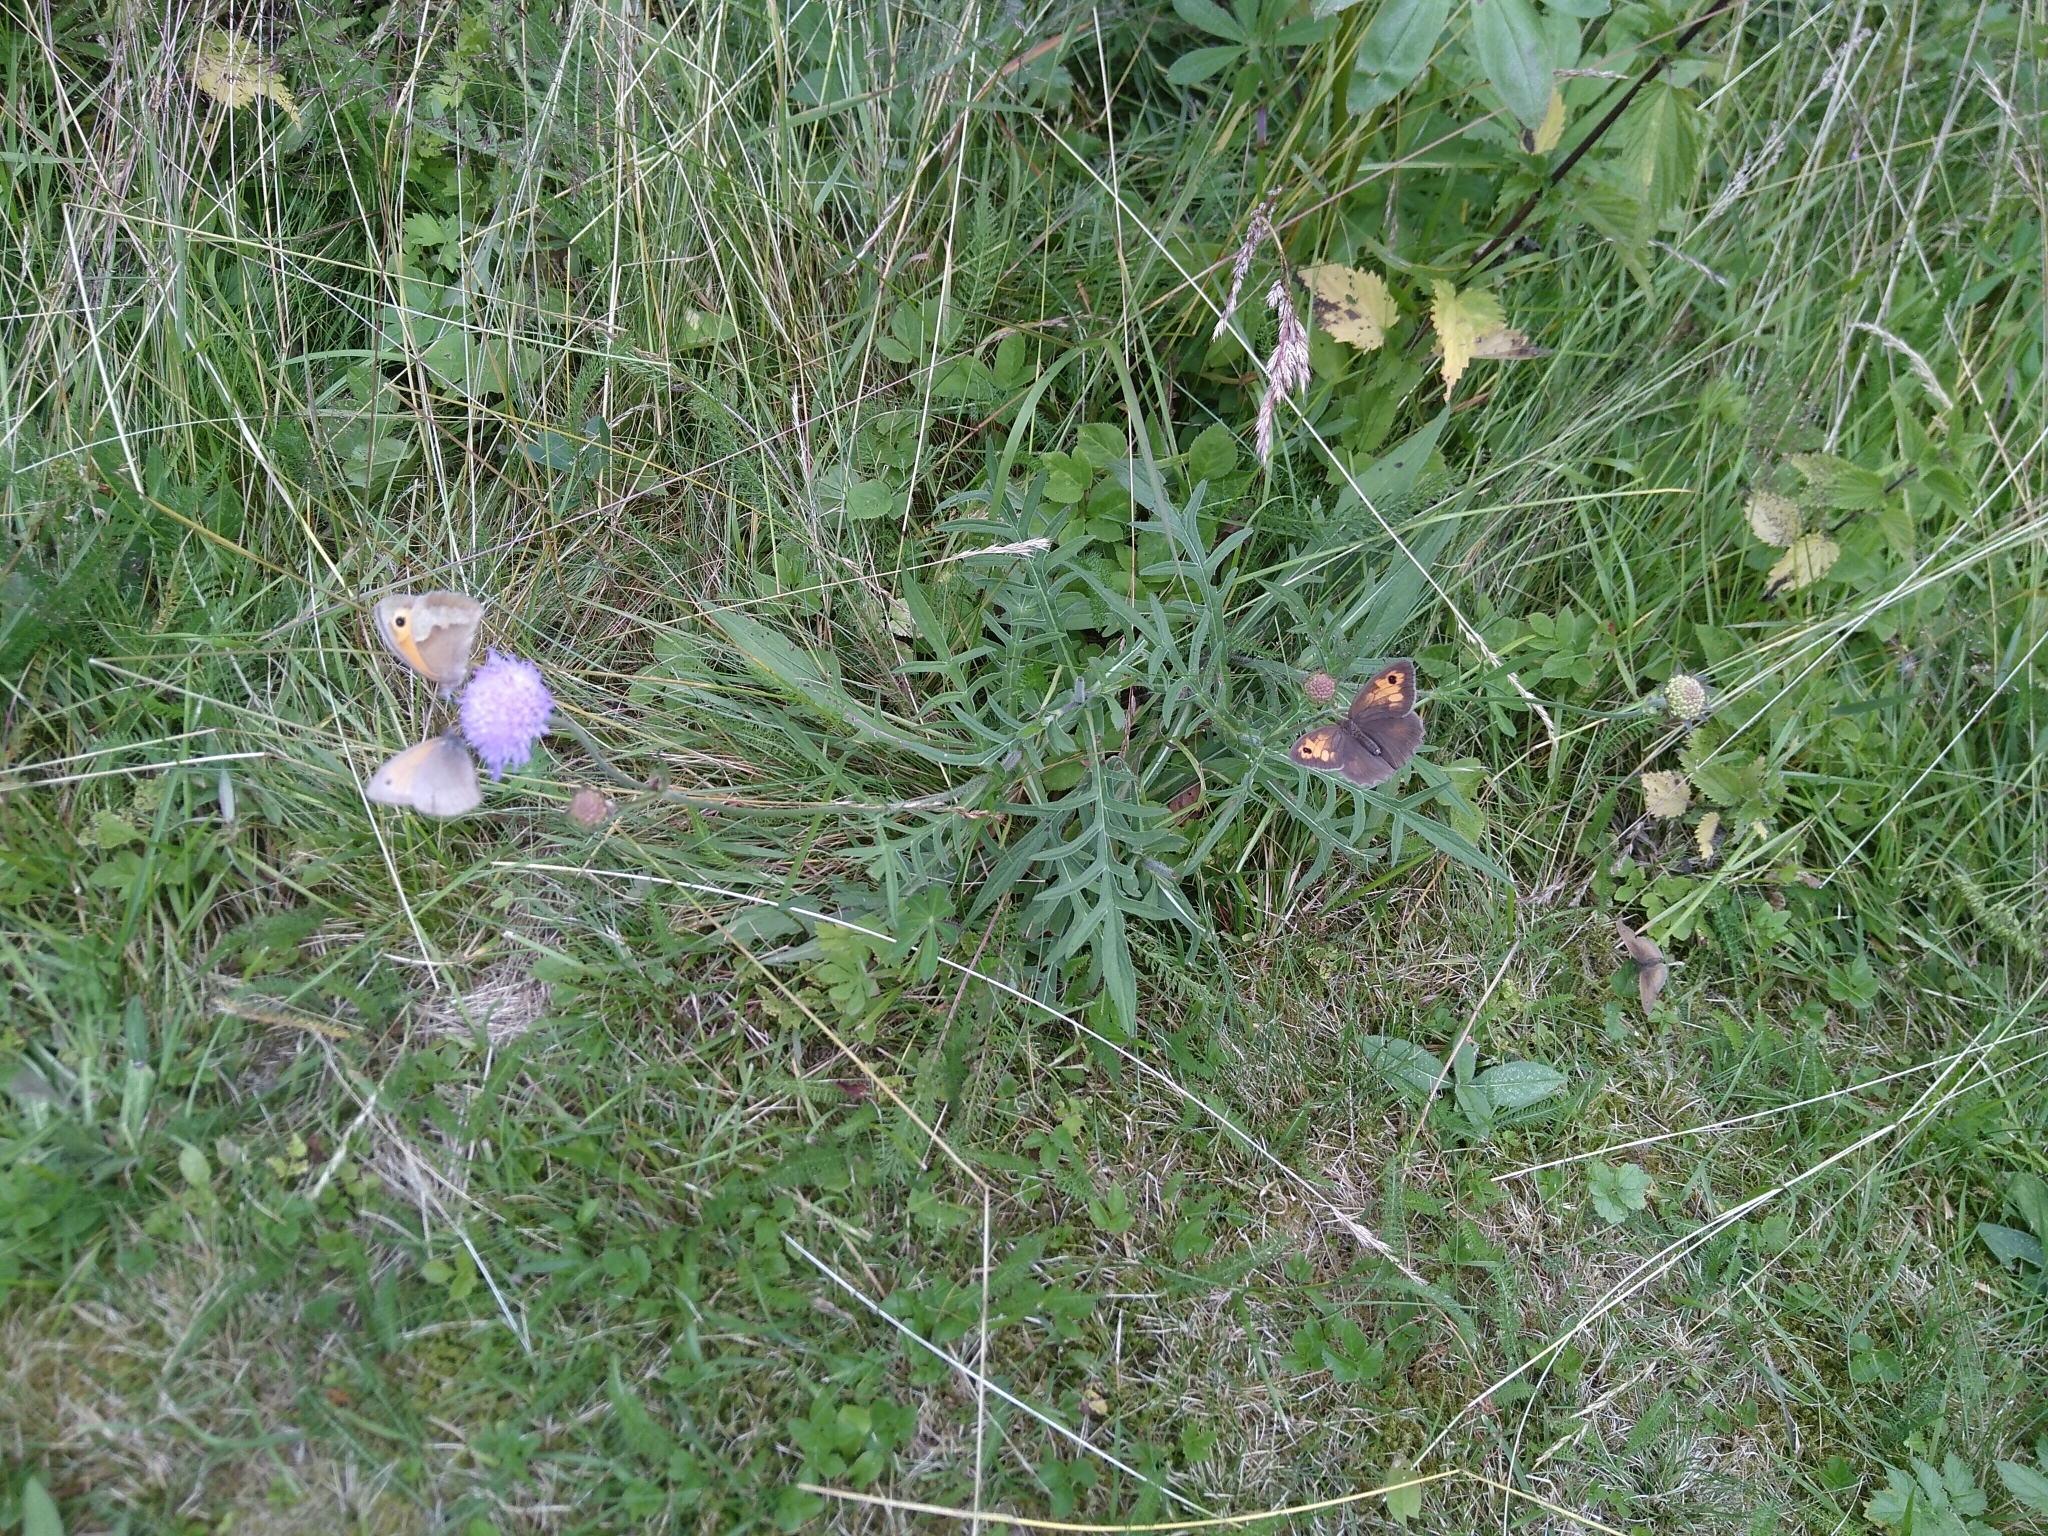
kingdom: Animalia
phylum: Arthropoda
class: Insecta
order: Lepidoptera
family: Nymphalidae
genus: Maniola
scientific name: Maniola jurtina
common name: Meadow brown
